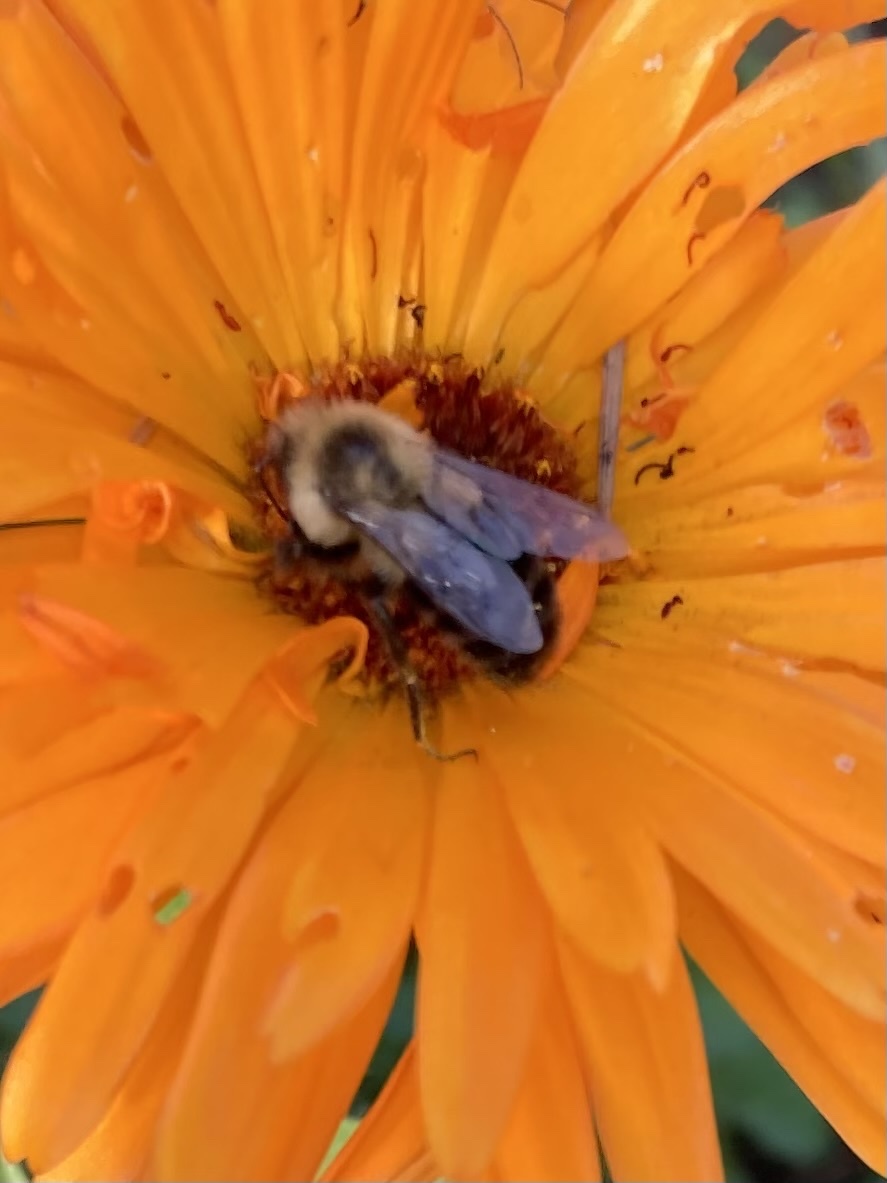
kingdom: Animalia
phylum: Arthropoda
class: Insecta
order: Hymenoptera
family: Apidae
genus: Bombus
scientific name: Bombus impatiens
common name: Common eastern bumble bee
